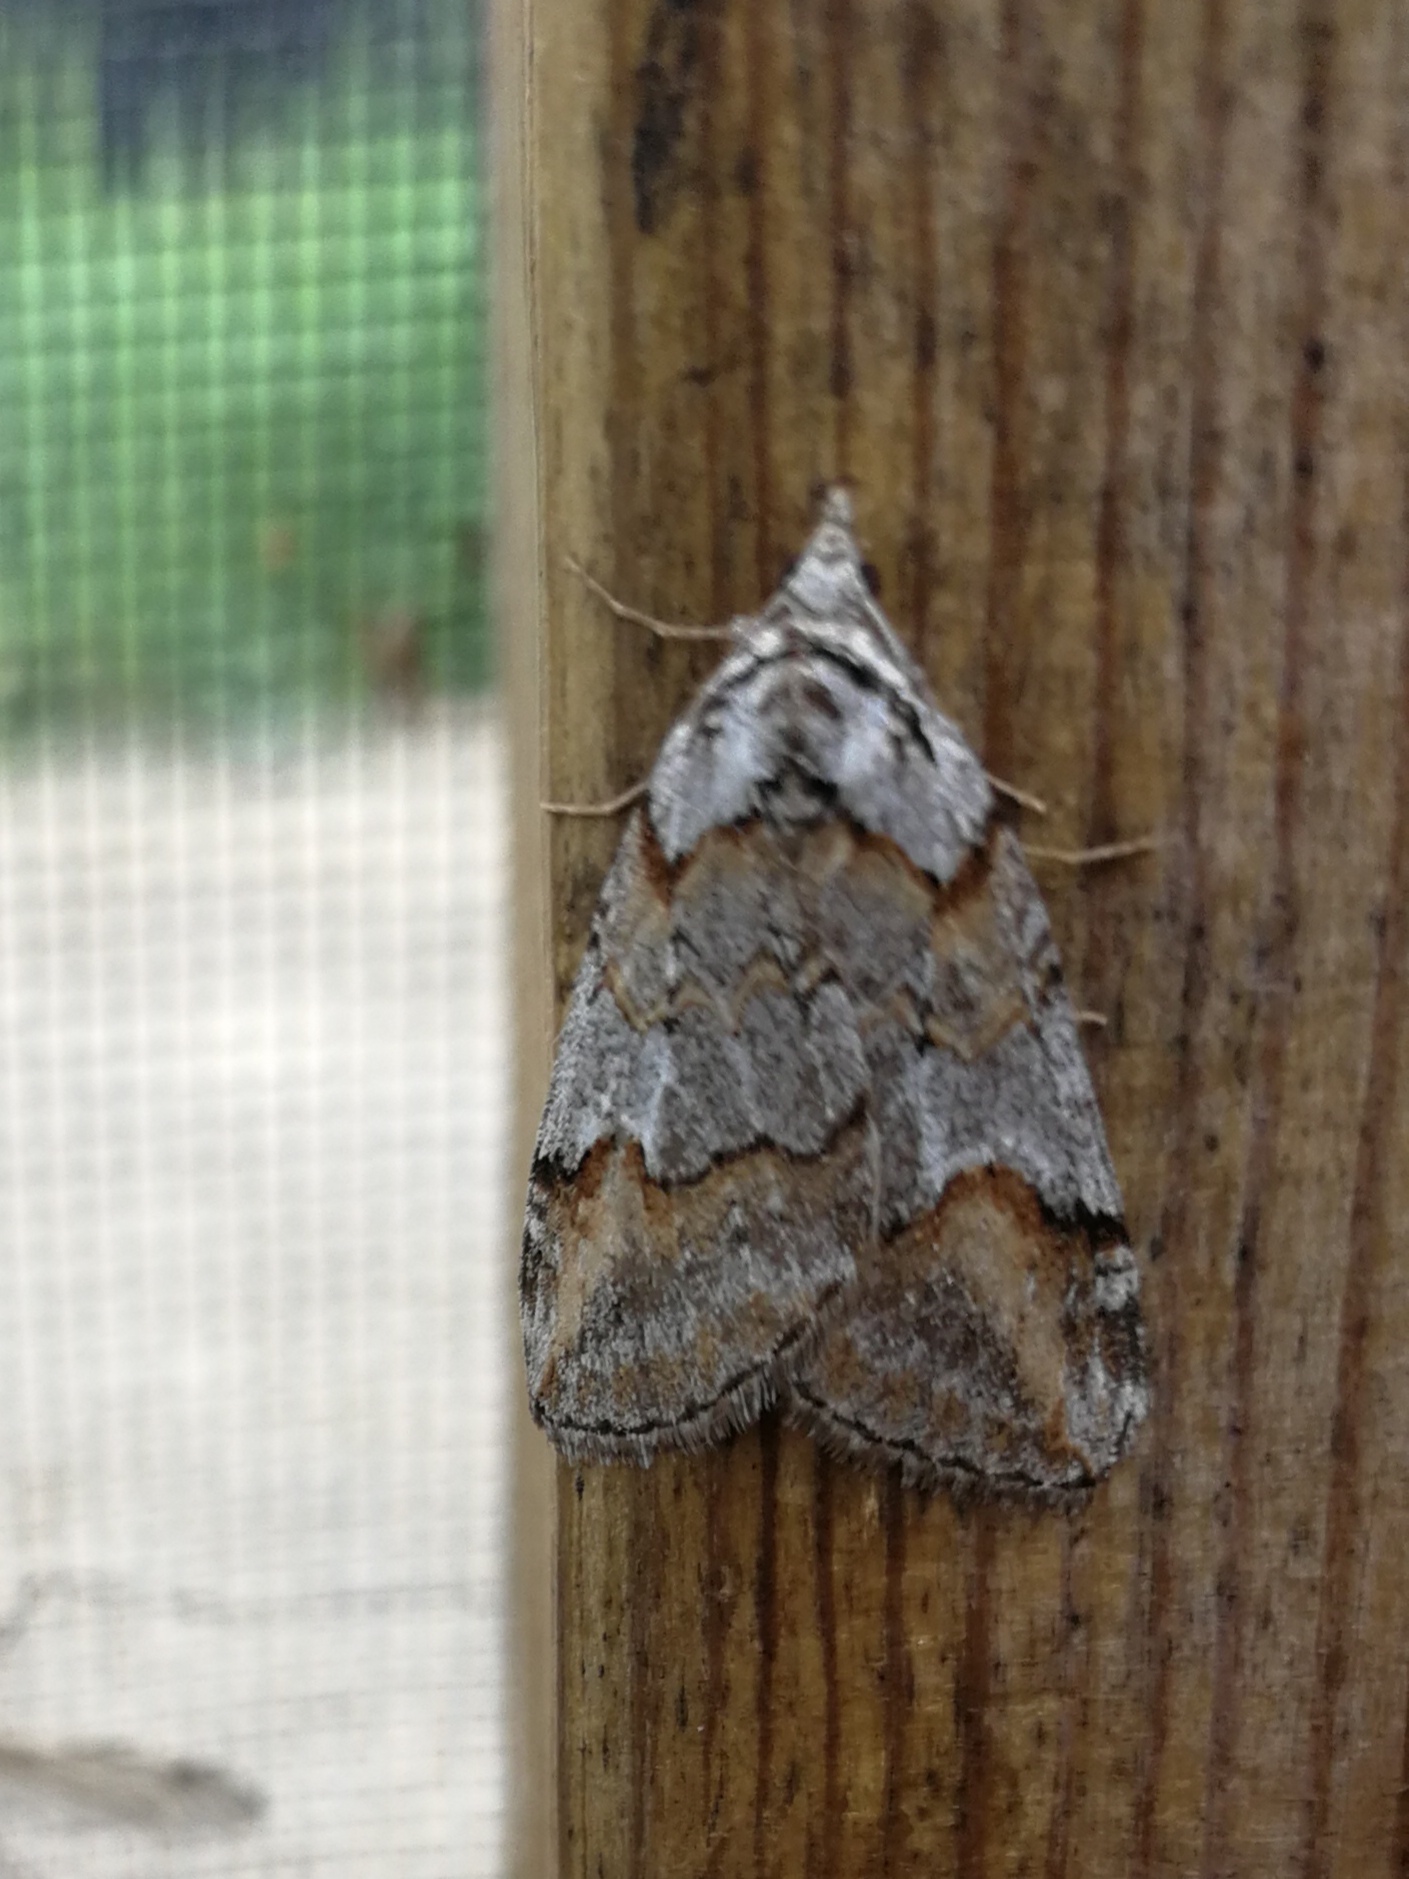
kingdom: Animalia
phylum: Arthropoda
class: Insecta
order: Lepidoptera
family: Geometridae
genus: Chesias
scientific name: Chesias rufata
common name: Broom-tip
